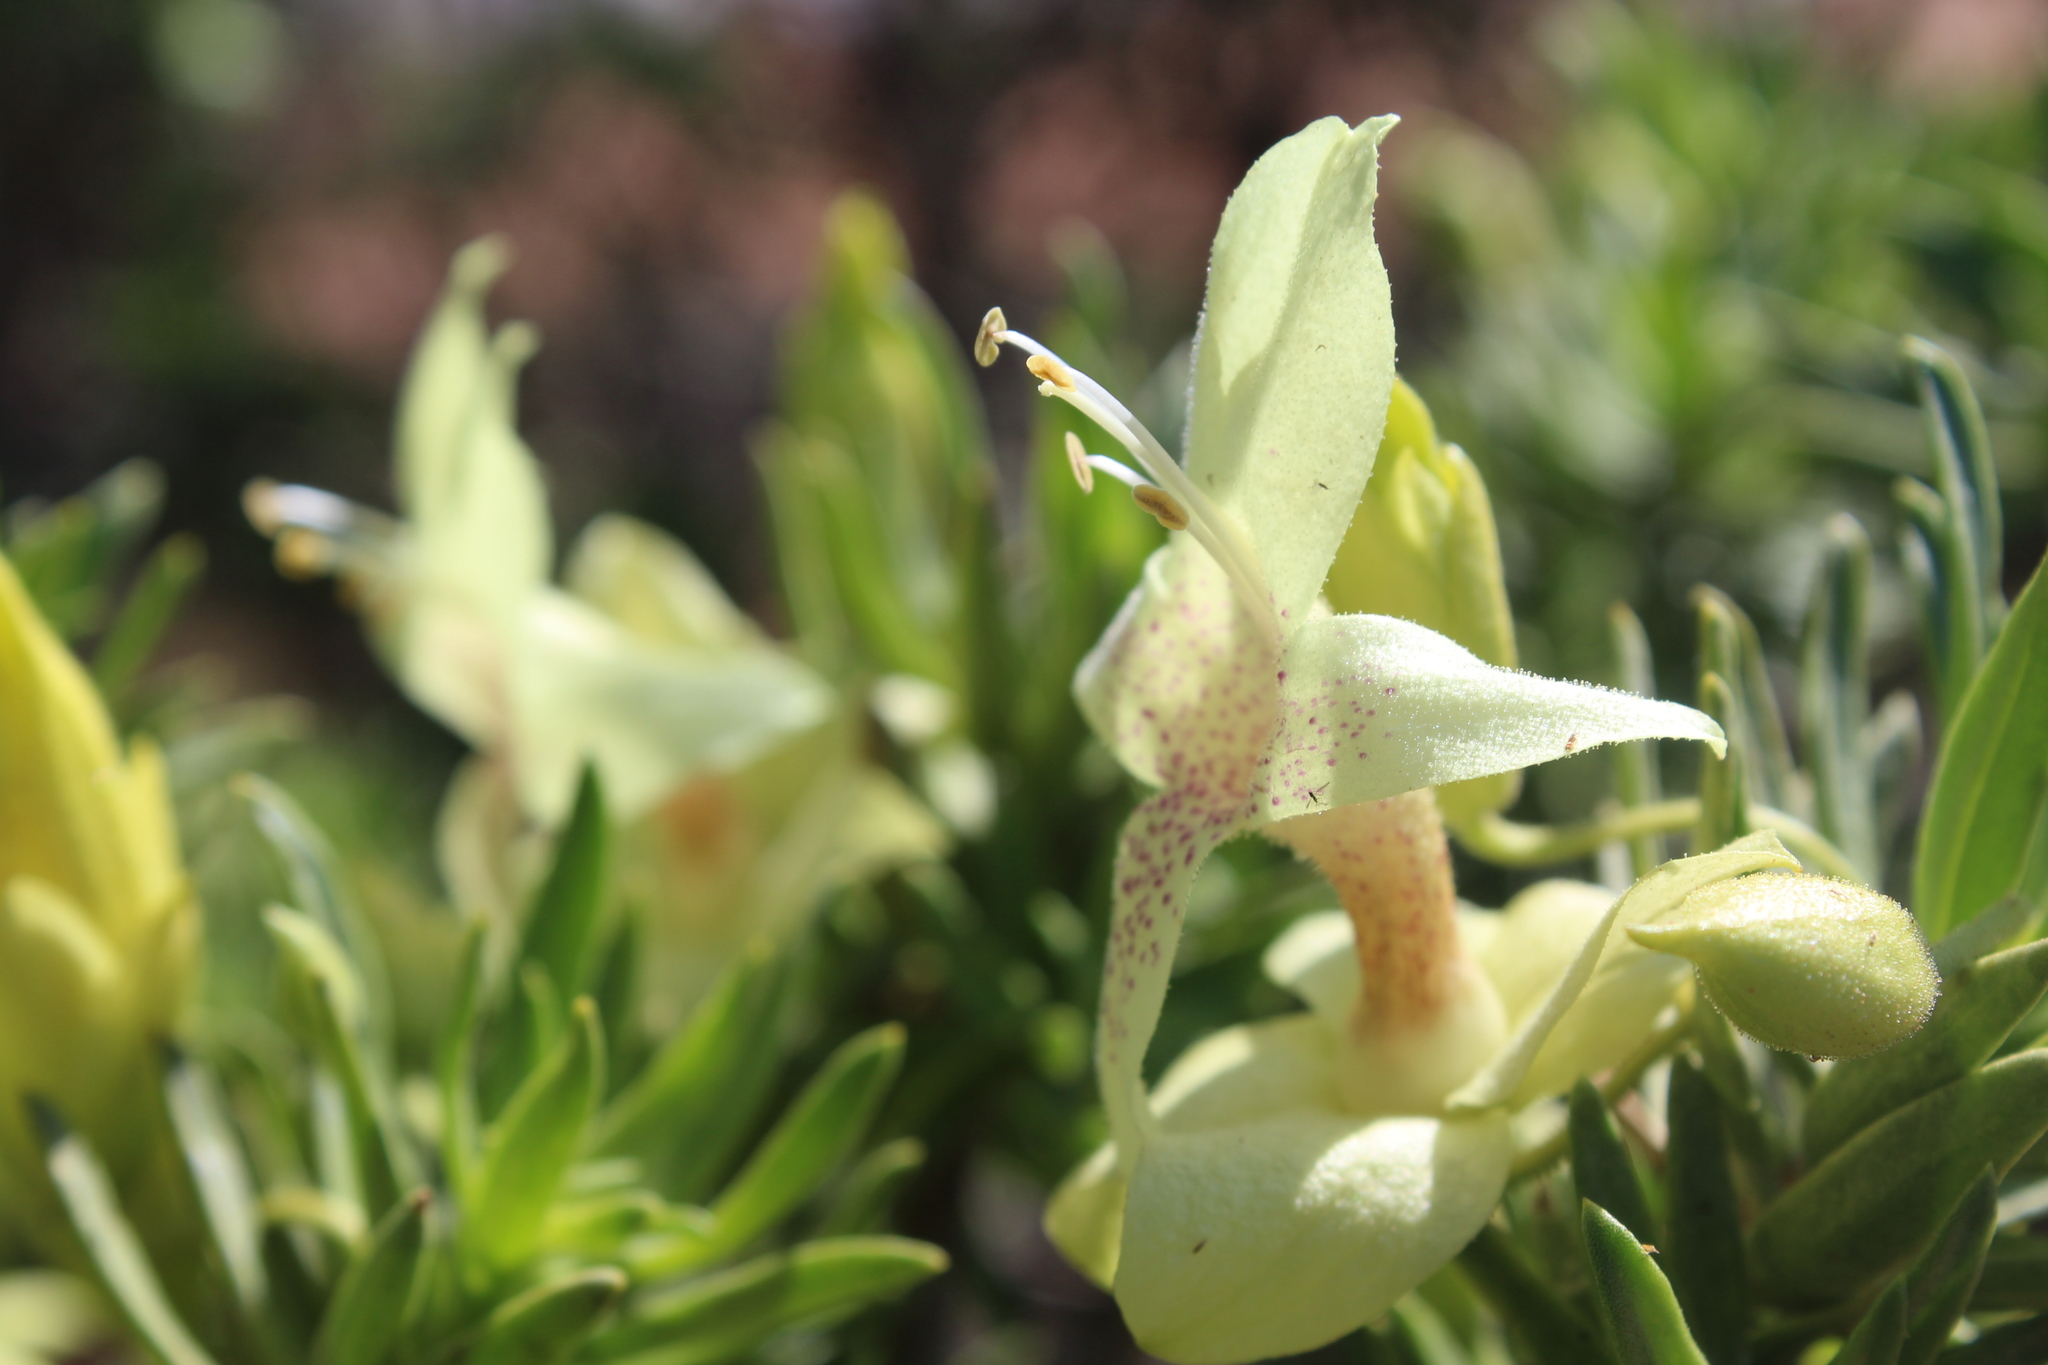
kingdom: Plantae
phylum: Tracheophyta
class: Magnoliopsida
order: Lamiales
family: Scrophulariaceae
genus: Eremophila
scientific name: Eremophila miniata
